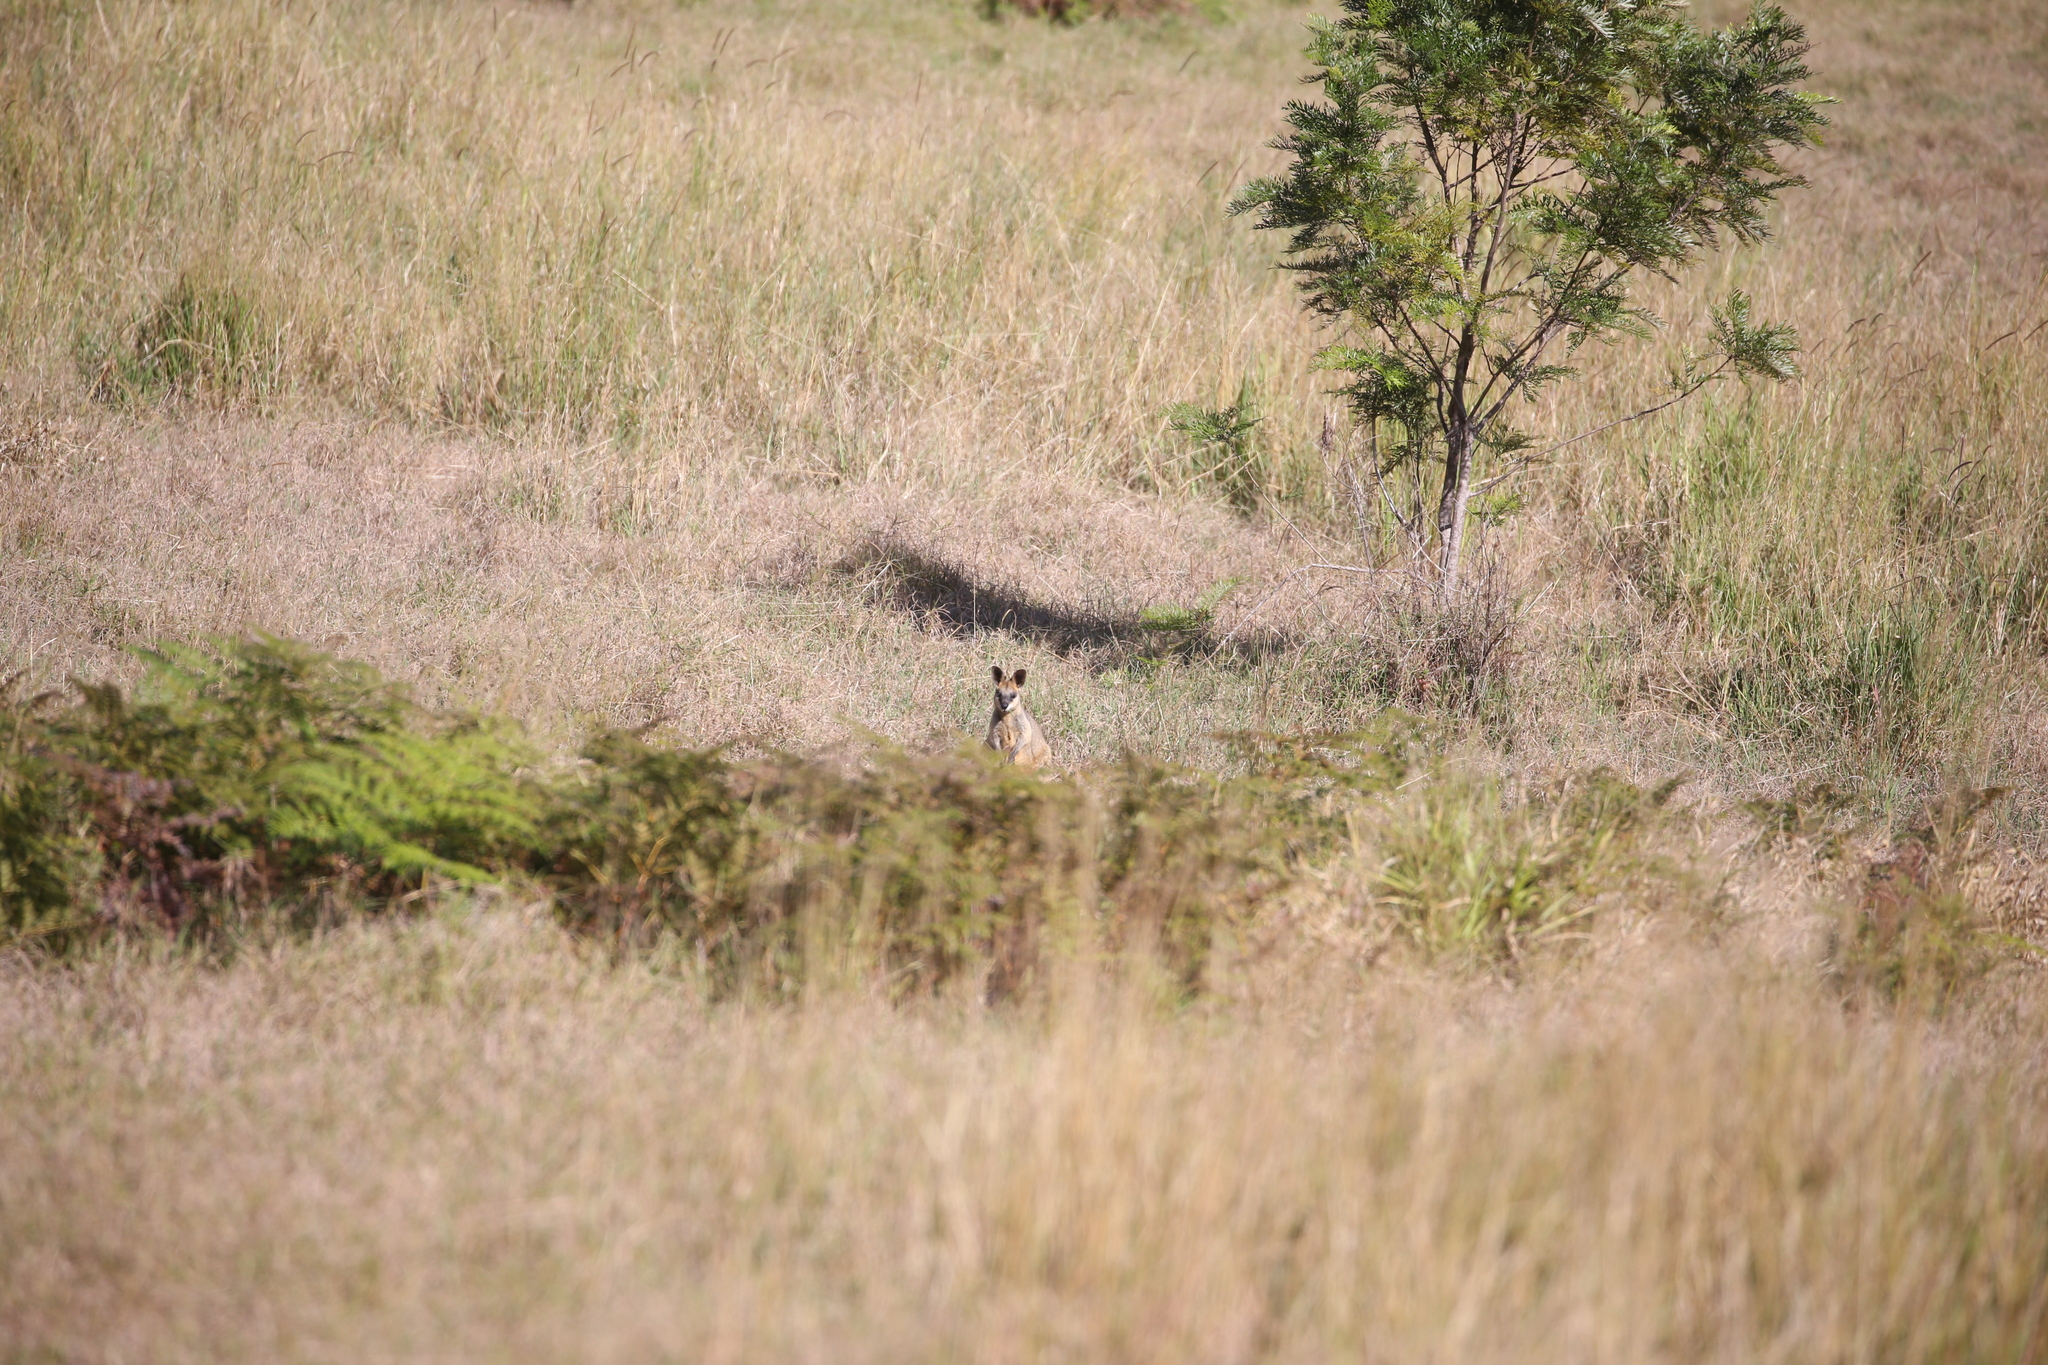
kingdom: Animalia
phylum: Chordata
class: Mammalia
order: Diprotodontia
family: Macropodidae
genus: Wallabia
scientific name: Wallabia bicolor
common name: Swamp wallaby
